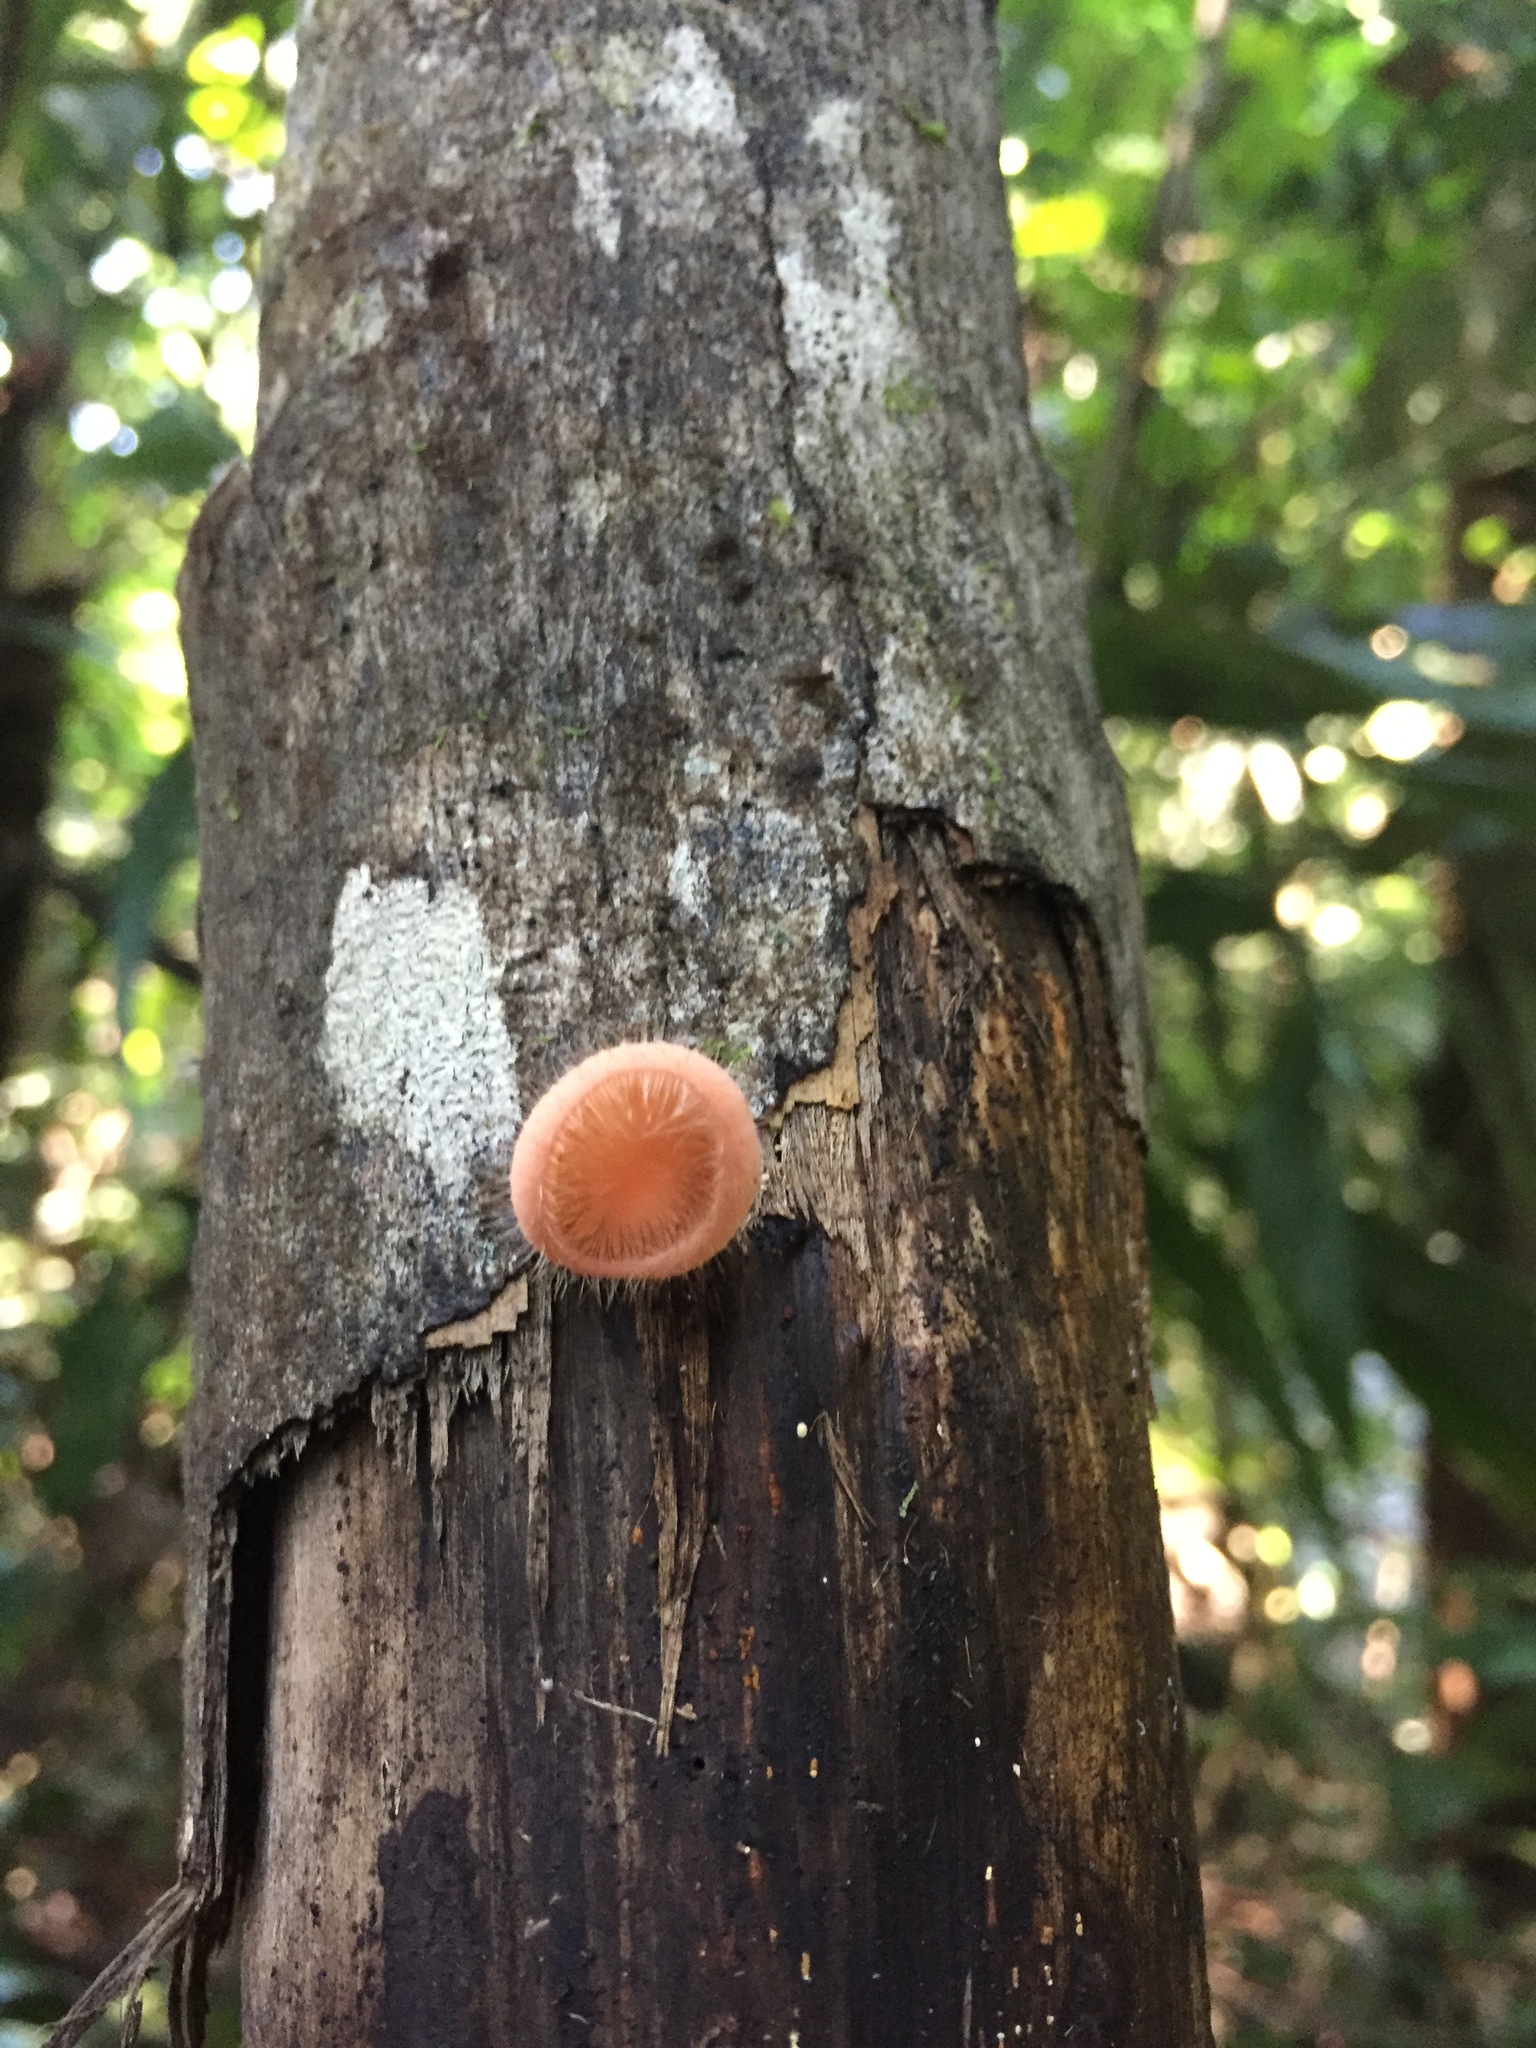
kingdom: Fungi
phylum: Ascomycota
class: Pezizomycetes
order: Pezizales
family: Sarcoscyphaceae
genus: Cookeina
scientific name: Cookeina tricholoma
